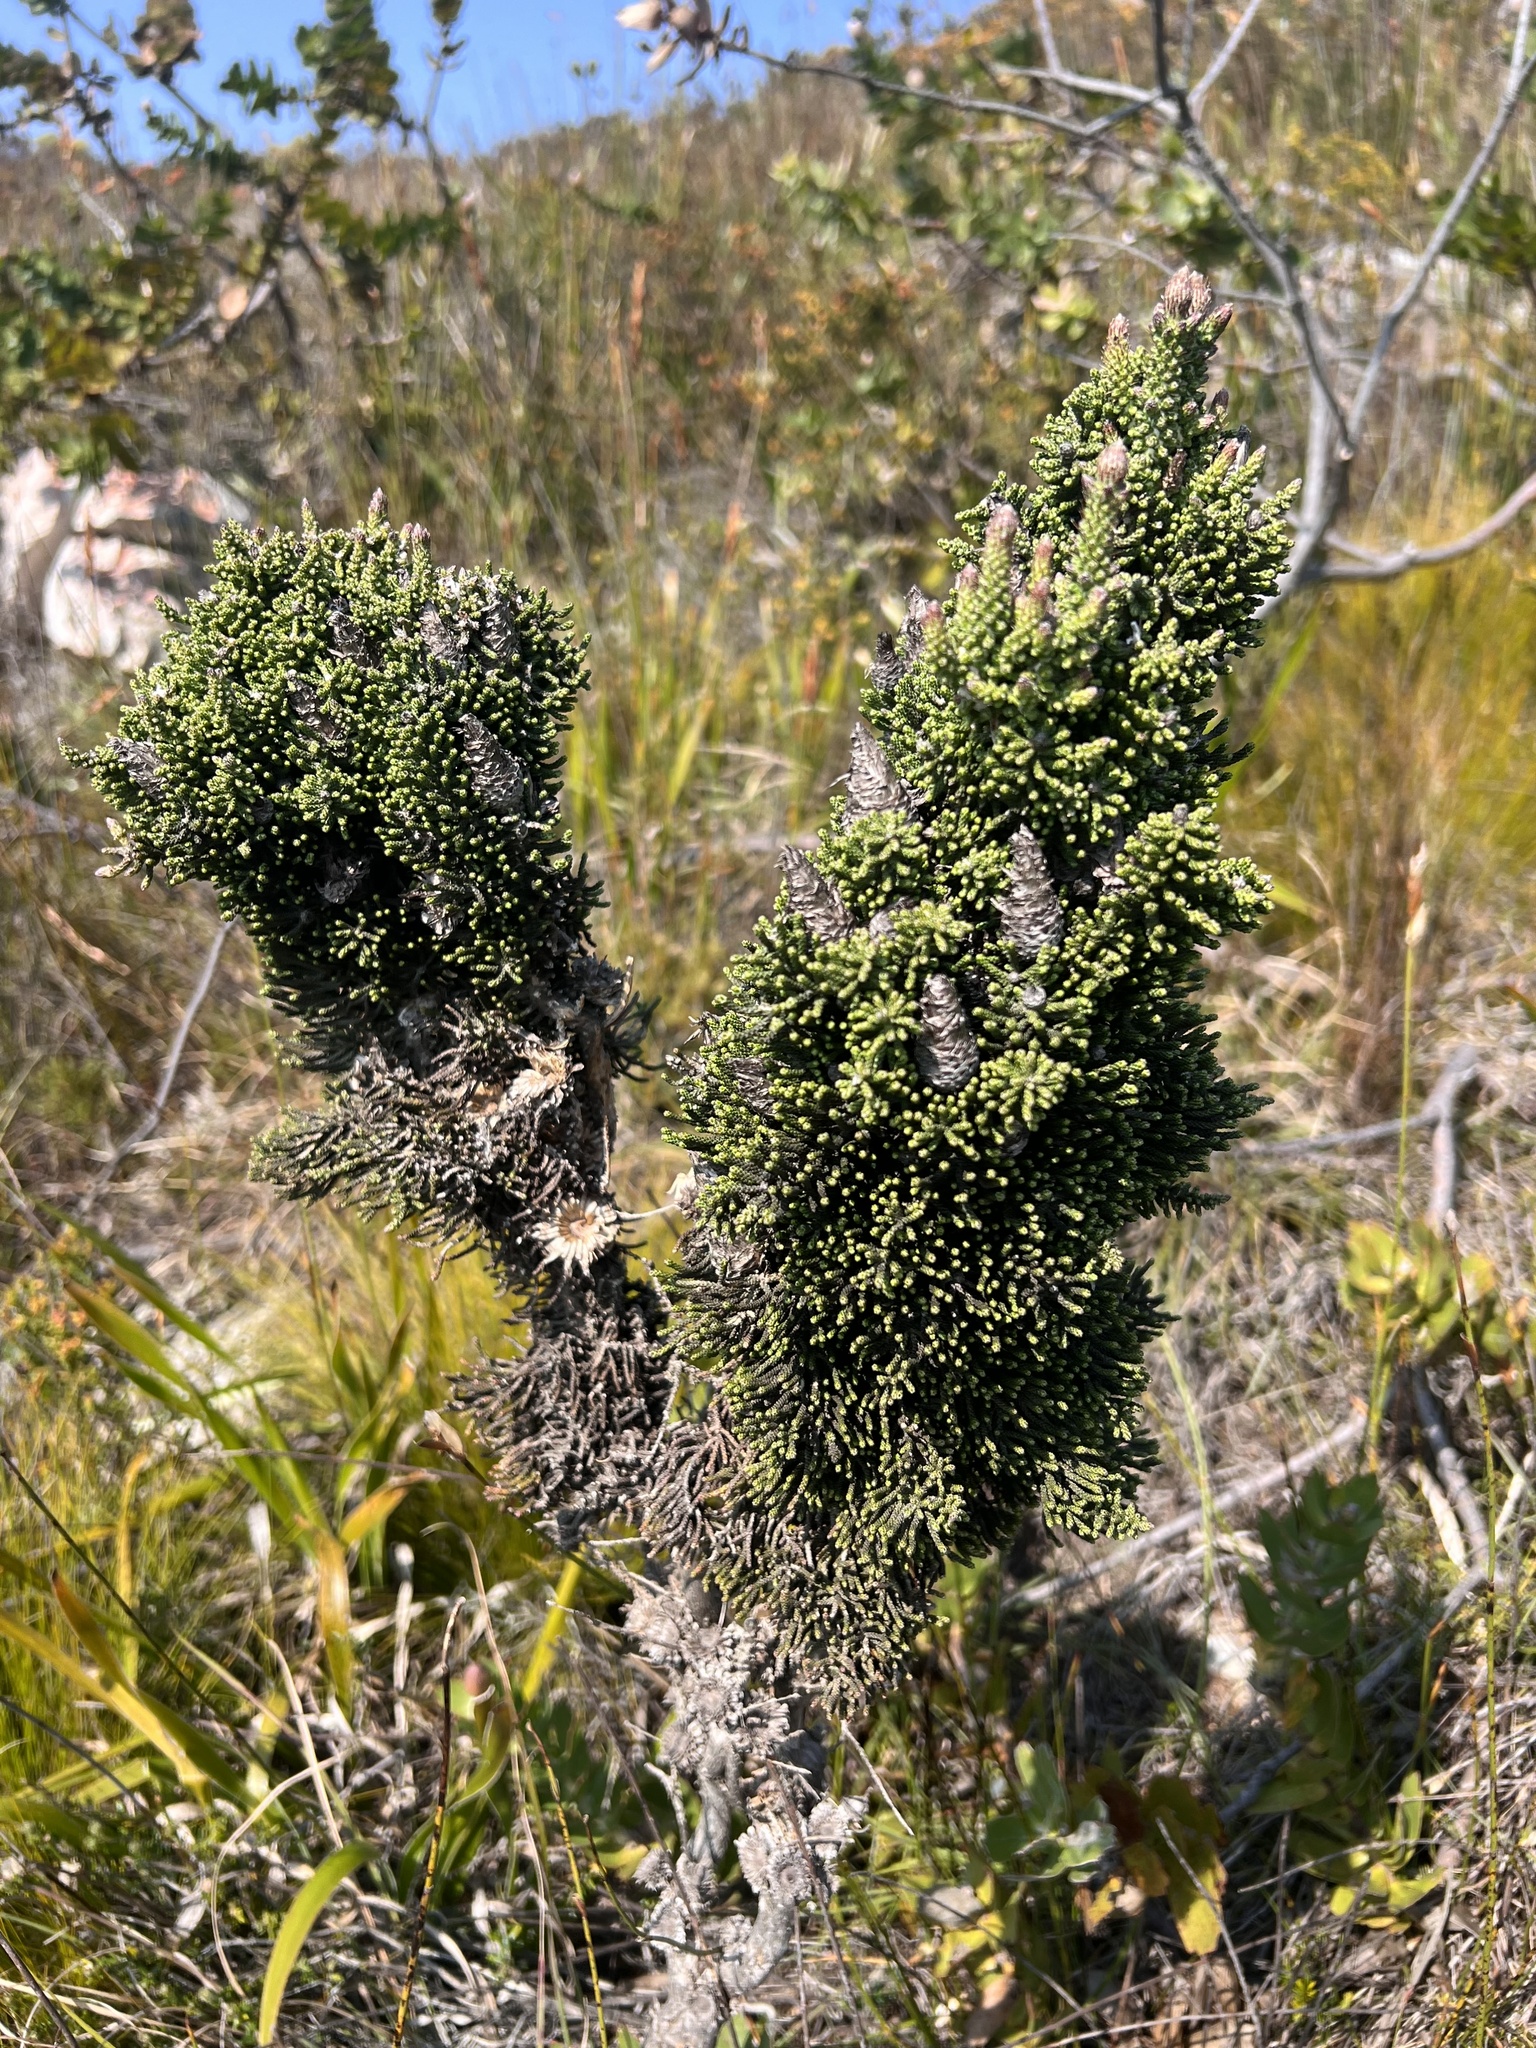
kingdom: Plantae
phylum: Tracheophyta
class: Magnoliopsida
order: Asterales
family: Asteraceae
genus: Phaenocoma
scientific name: Phaenocoma prolifera
